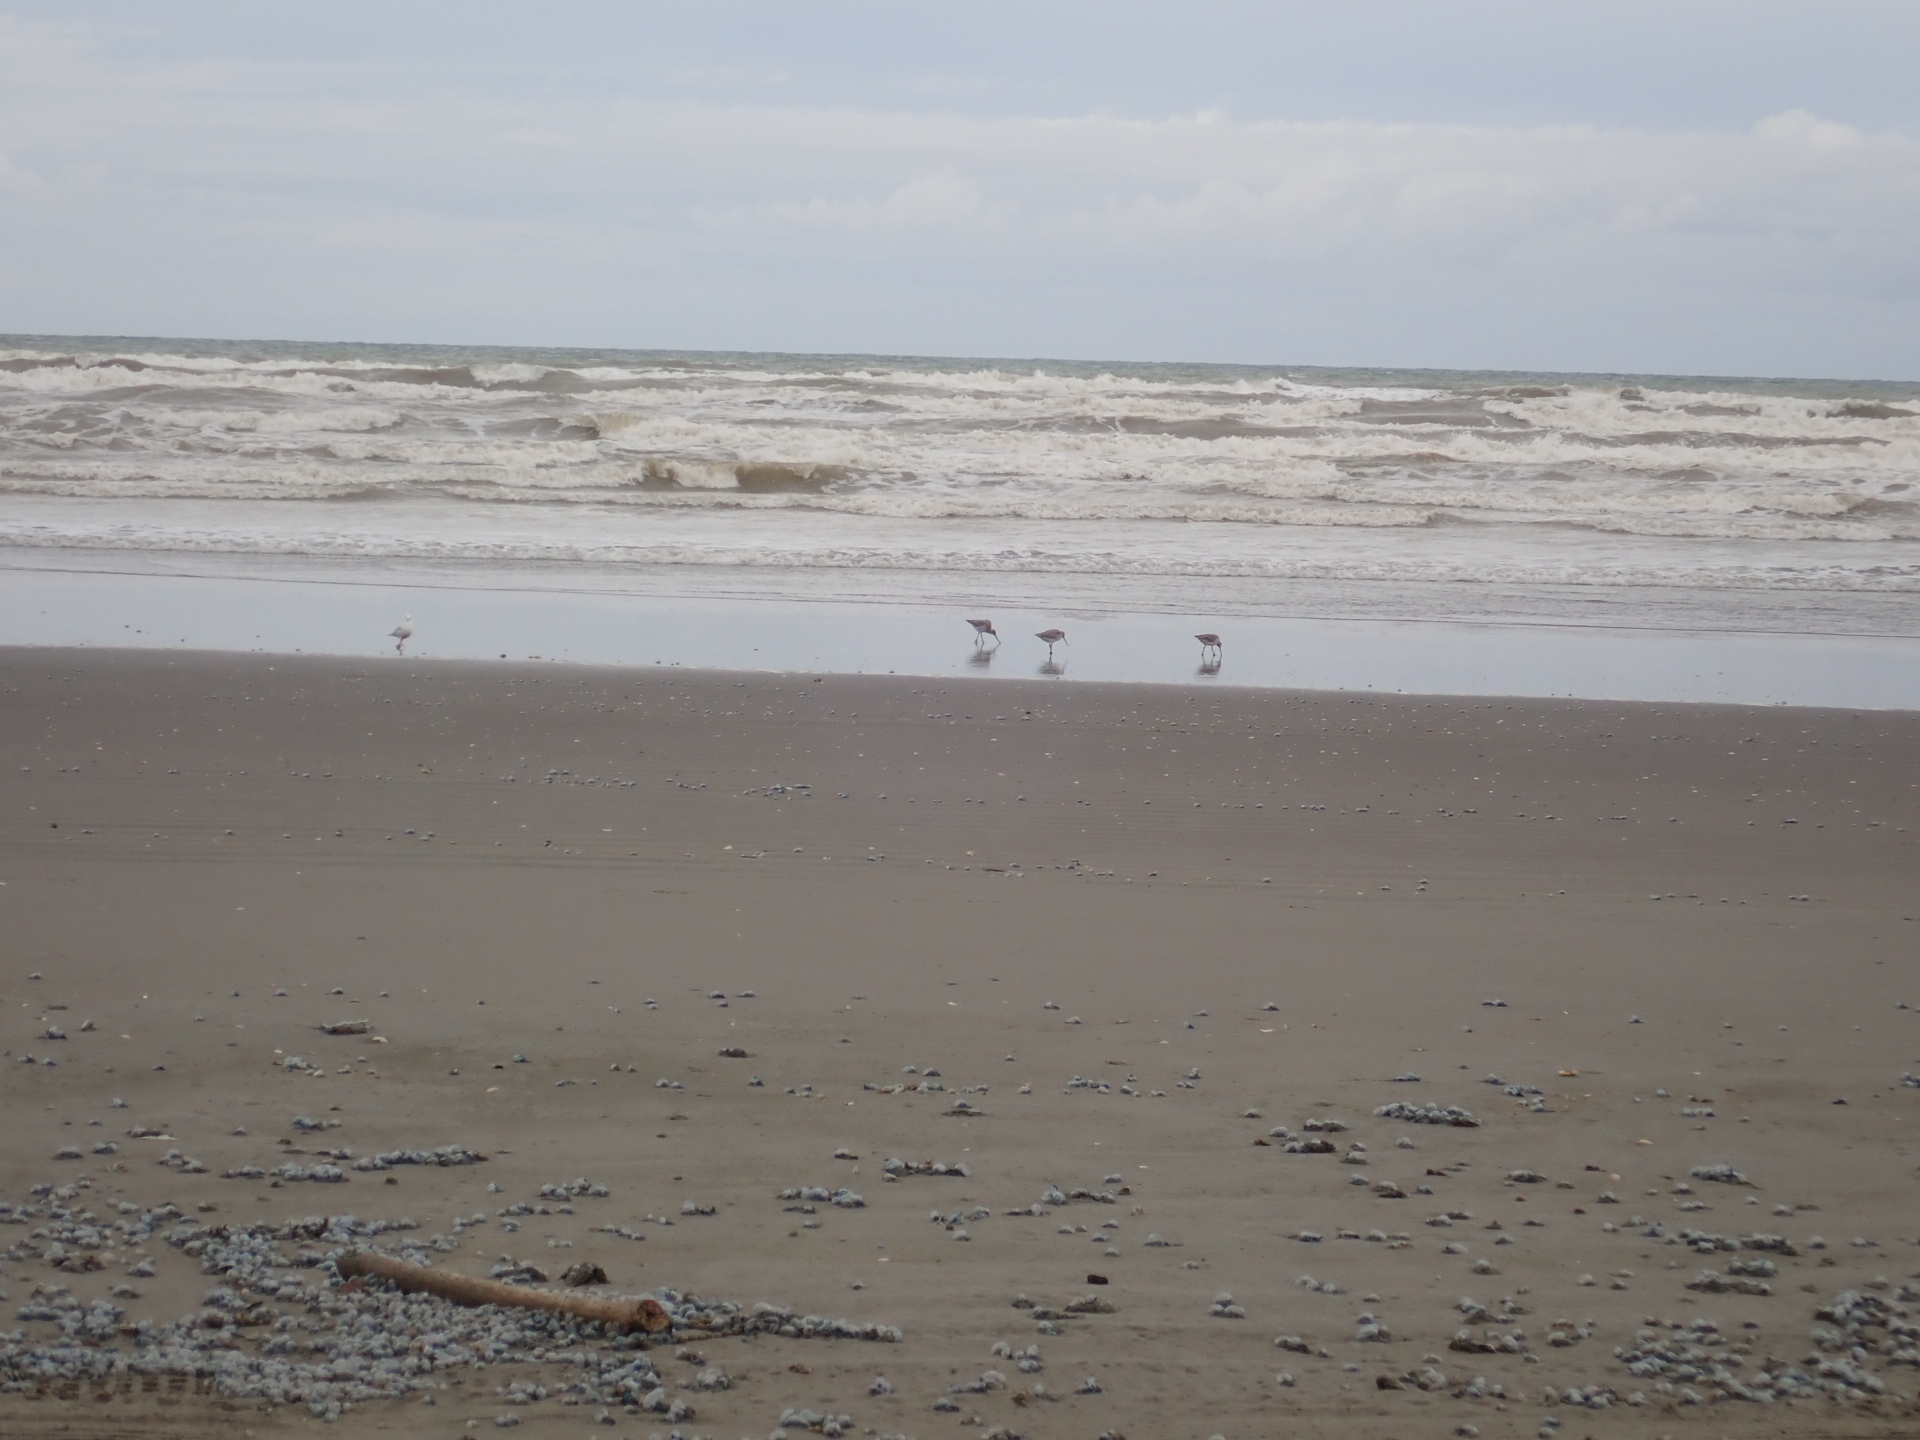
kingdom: Animalia
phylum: Chordata
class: Aves
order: Charadriiformes
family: Scolopacidae
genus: Limosa
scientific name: Limosa lapponica
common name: Bar-tailed godwit
